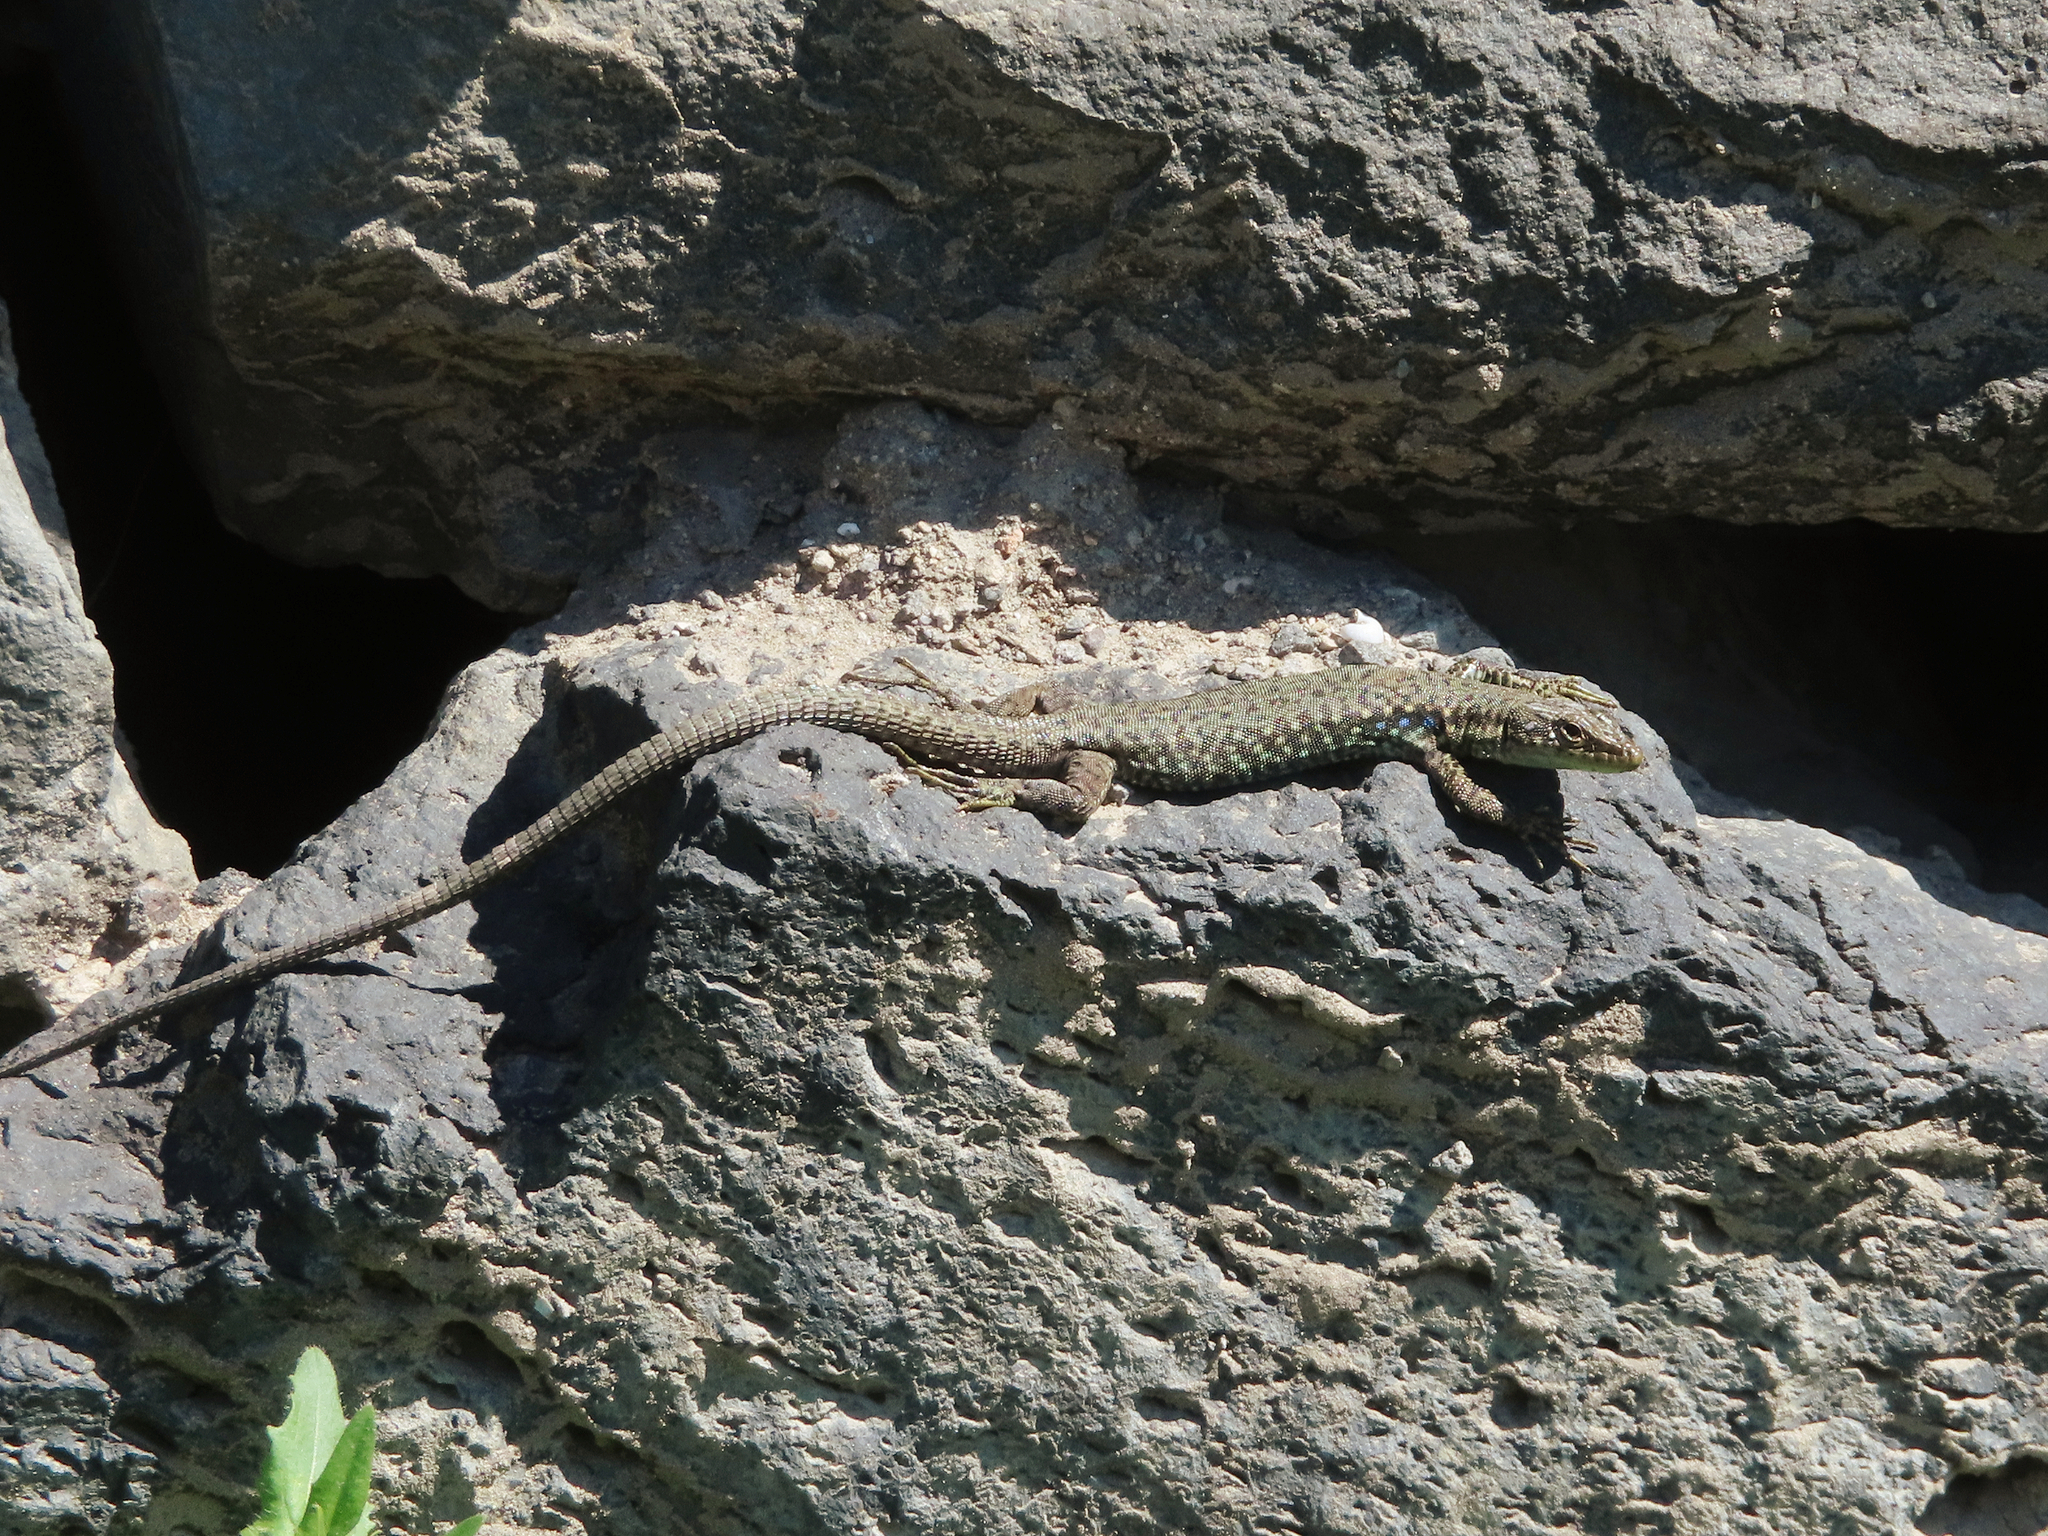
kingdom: Animalia
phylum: Chordata
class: Squamata
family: Lacertidae
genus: Darevskia
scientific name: Darevskia
